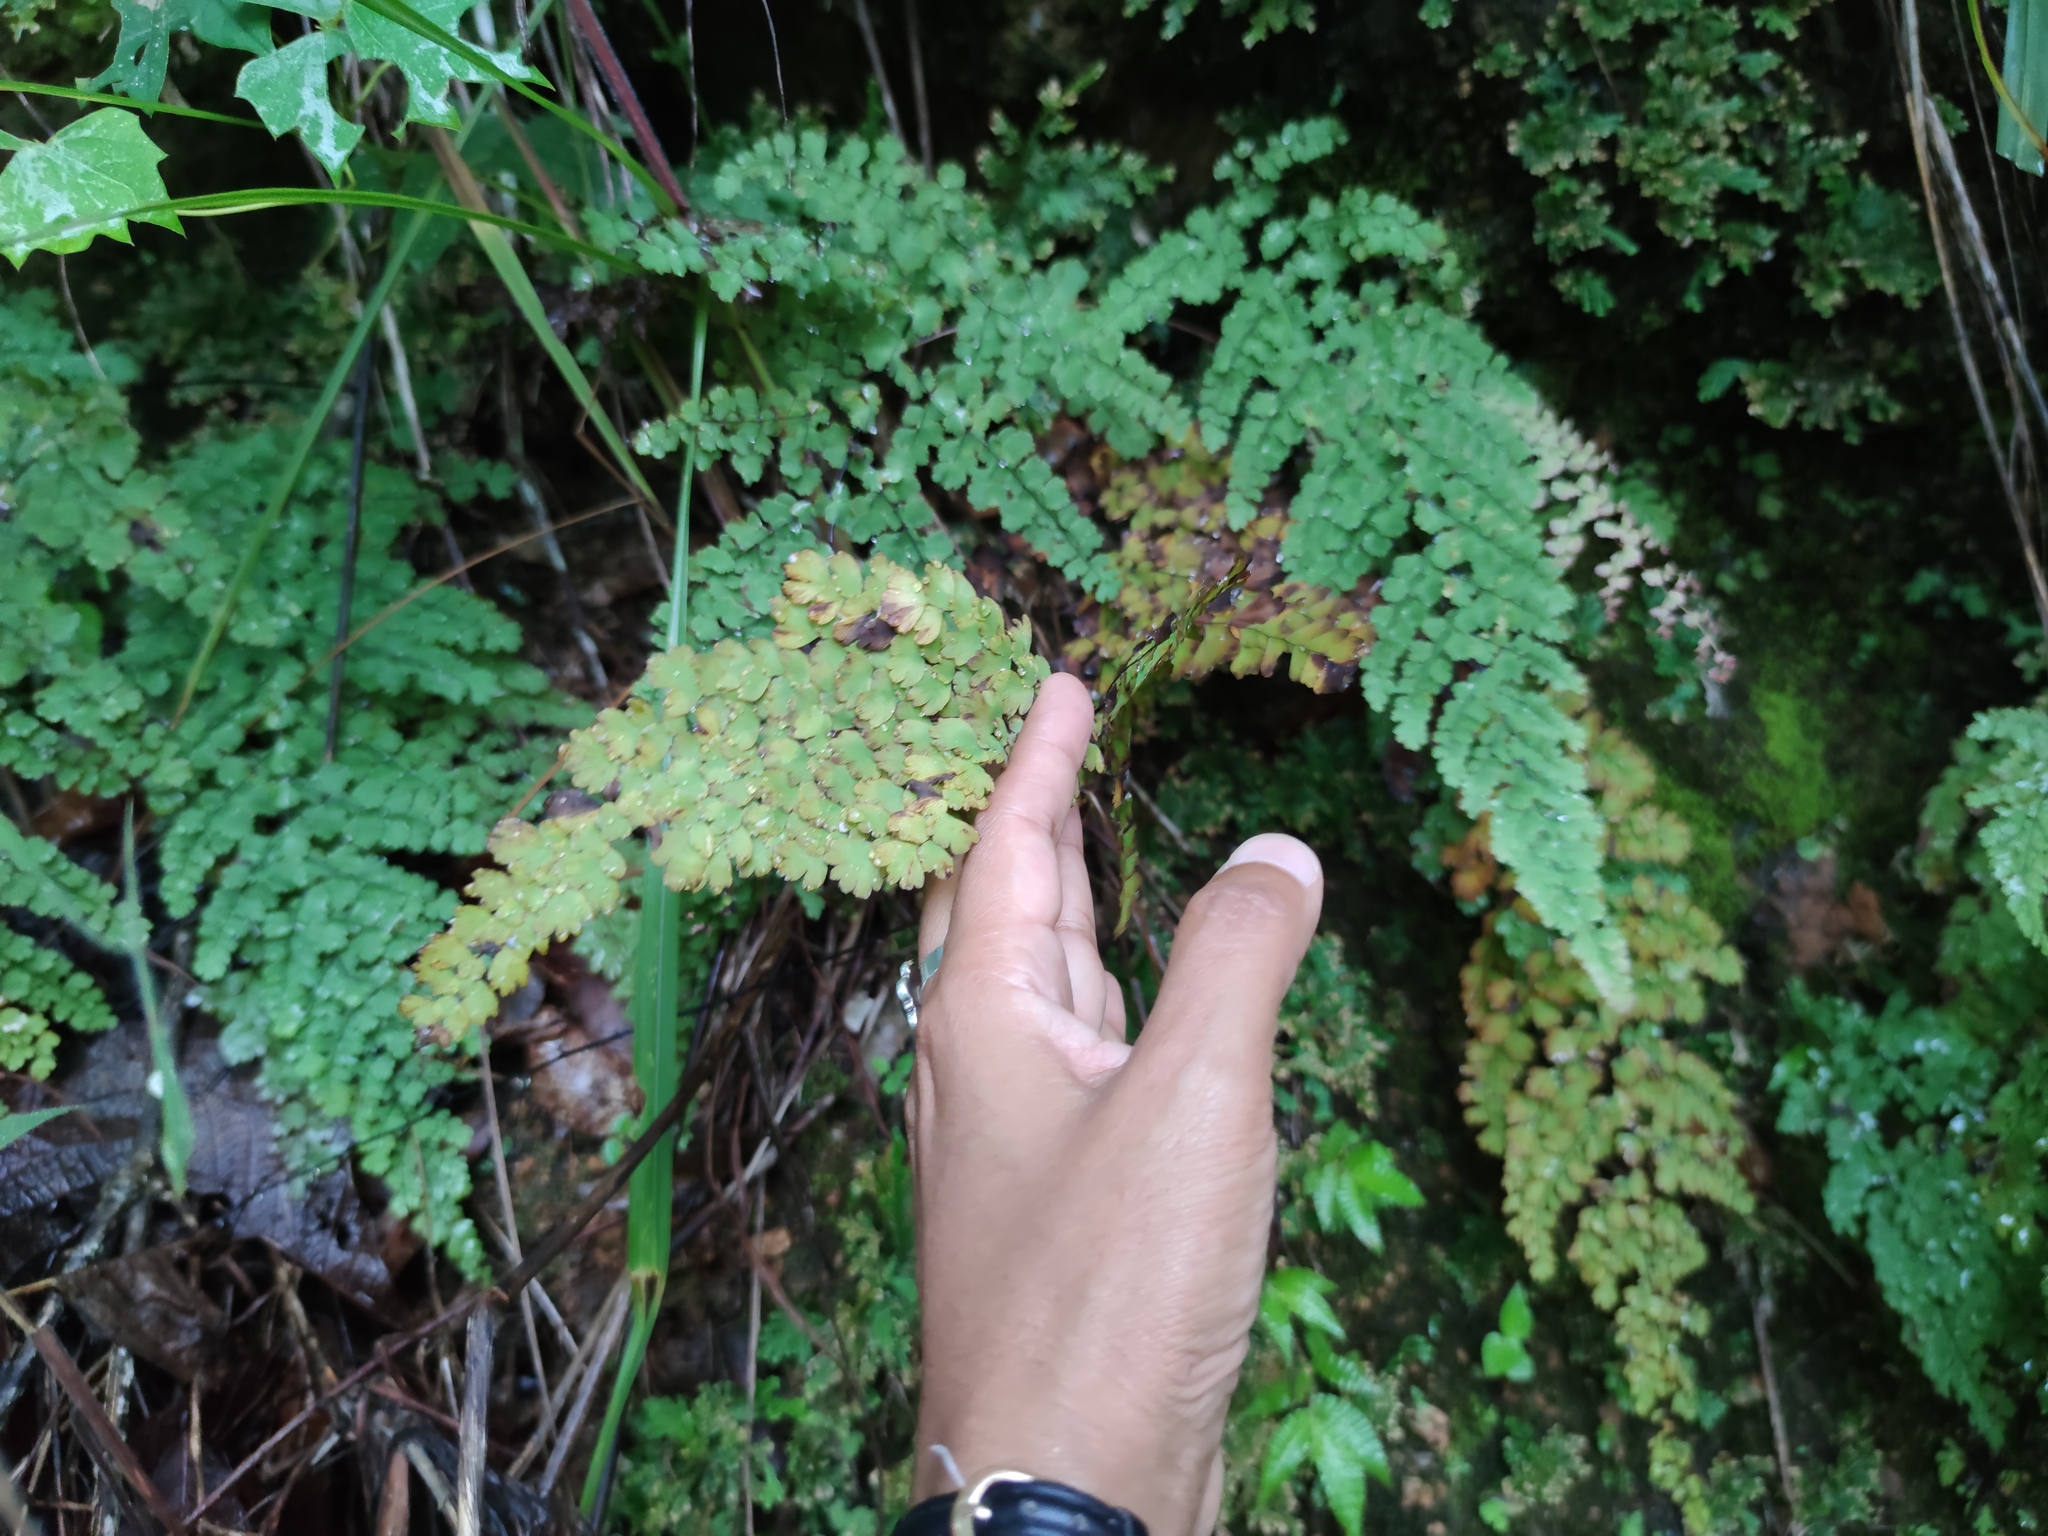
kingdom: Plantae
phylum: Tracheophyta
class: Polypodiopsida
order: Polypodiales
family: Pteridaceae
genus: Adiantum
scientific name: Adiantum concinnum
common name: Brittle maidenhair fern
